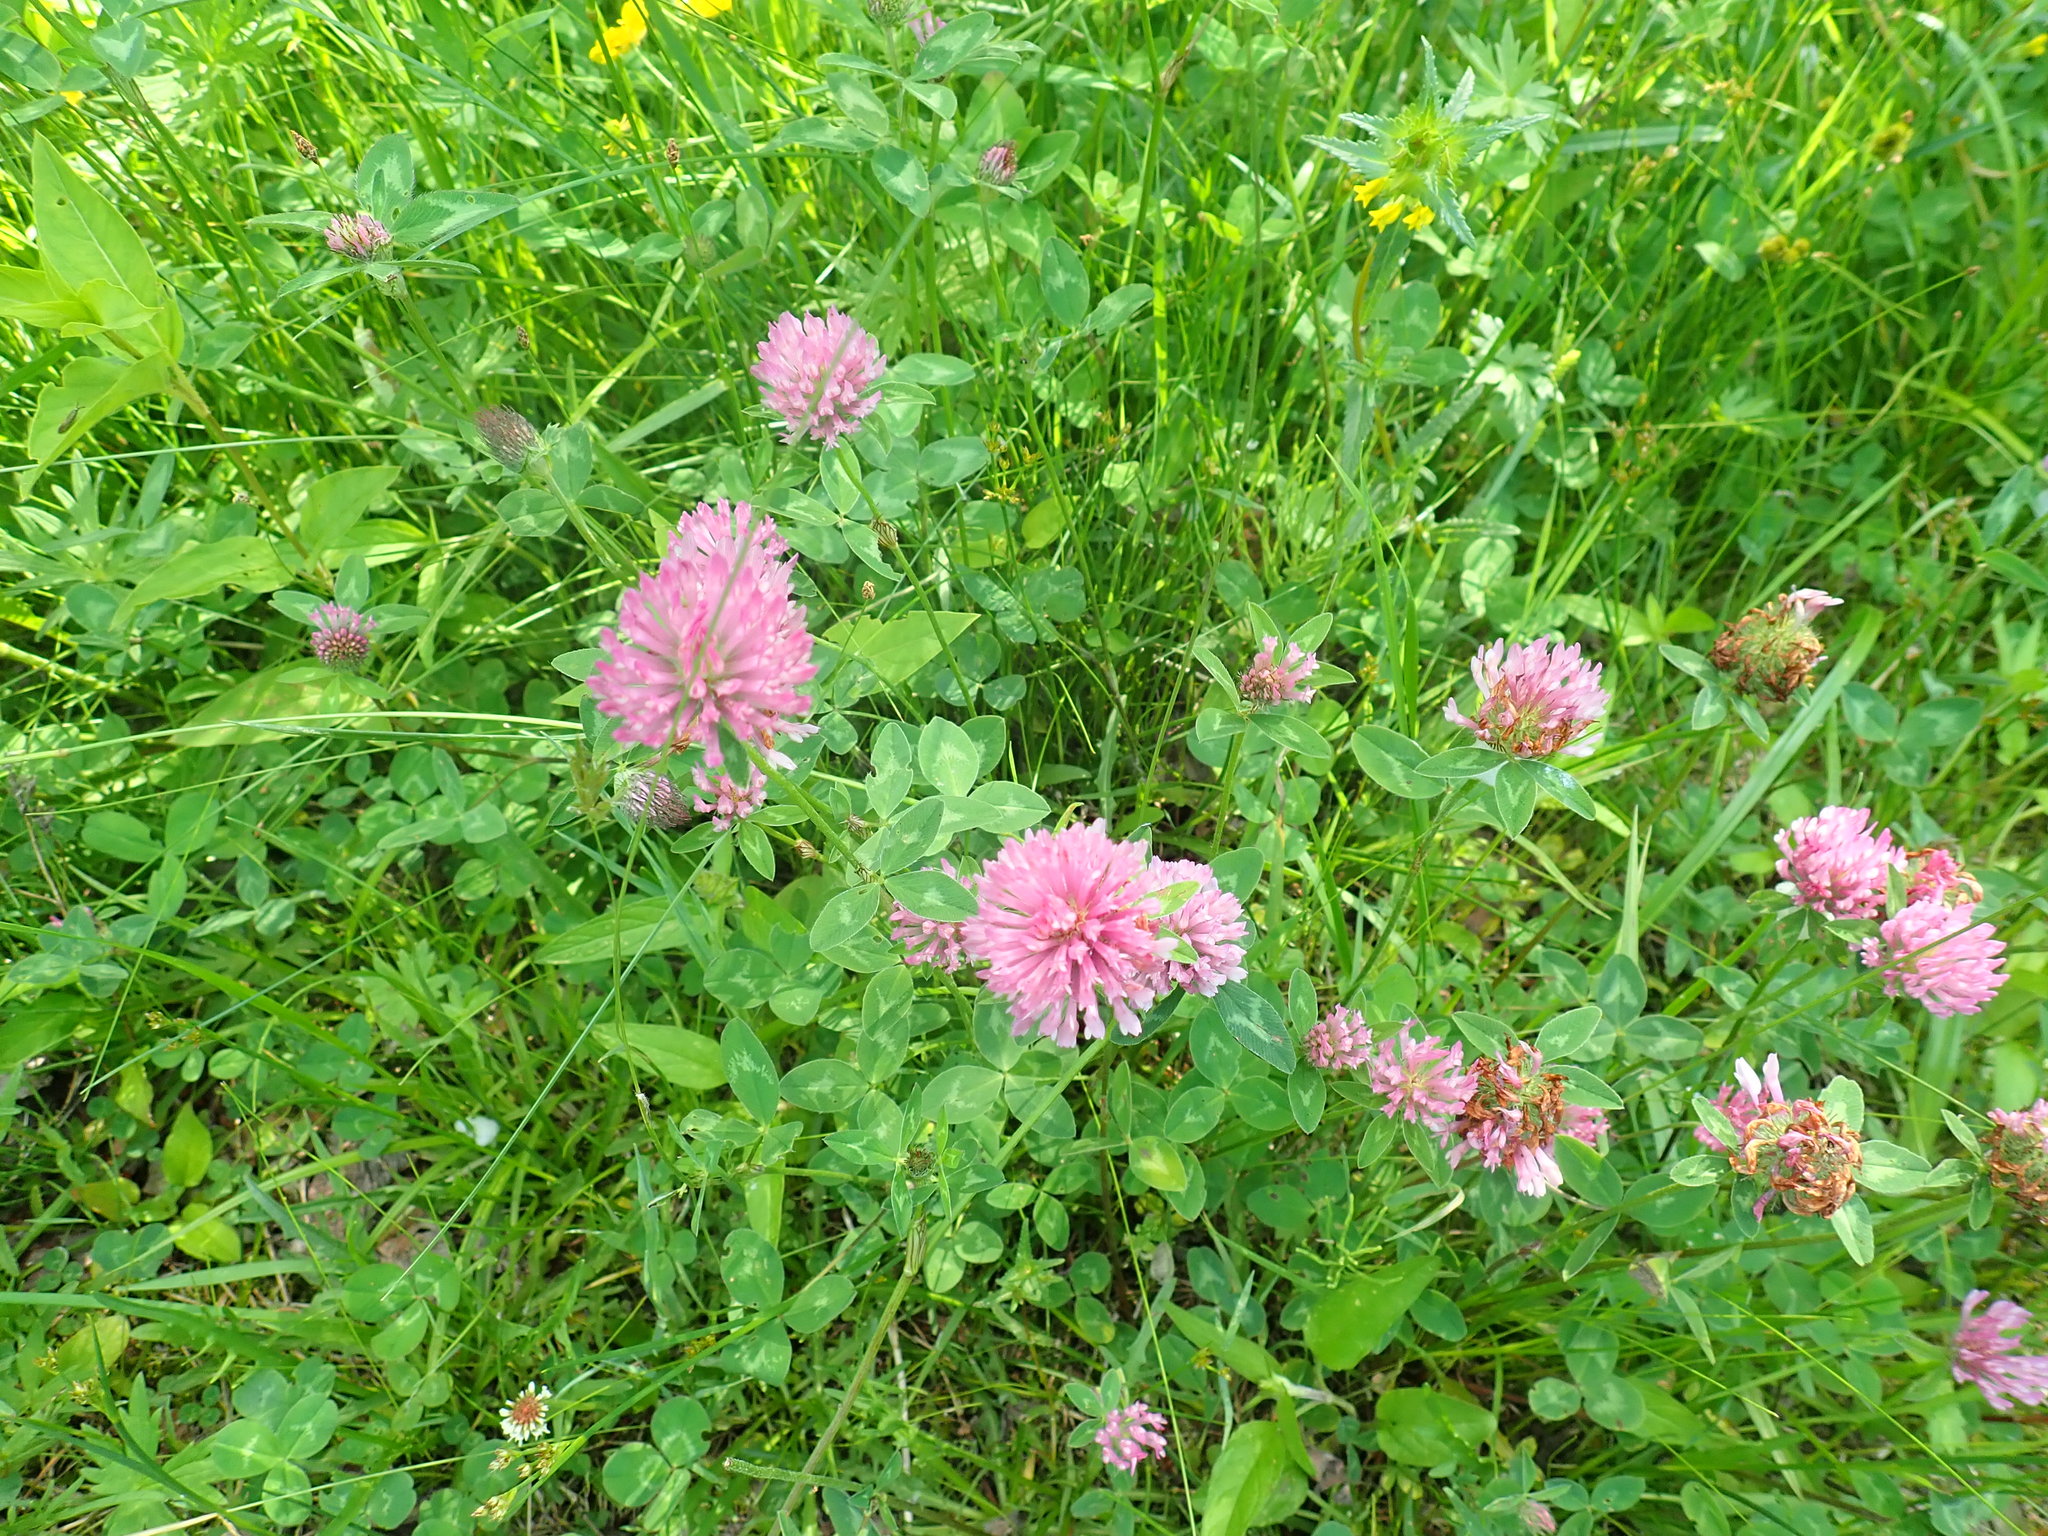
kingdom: Plantae
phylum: Tracheophyta
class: Magnoliopsida
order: Fabales
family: Fabaceae
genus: Trifolium
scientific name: Trifolium pratense
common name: Red clover
